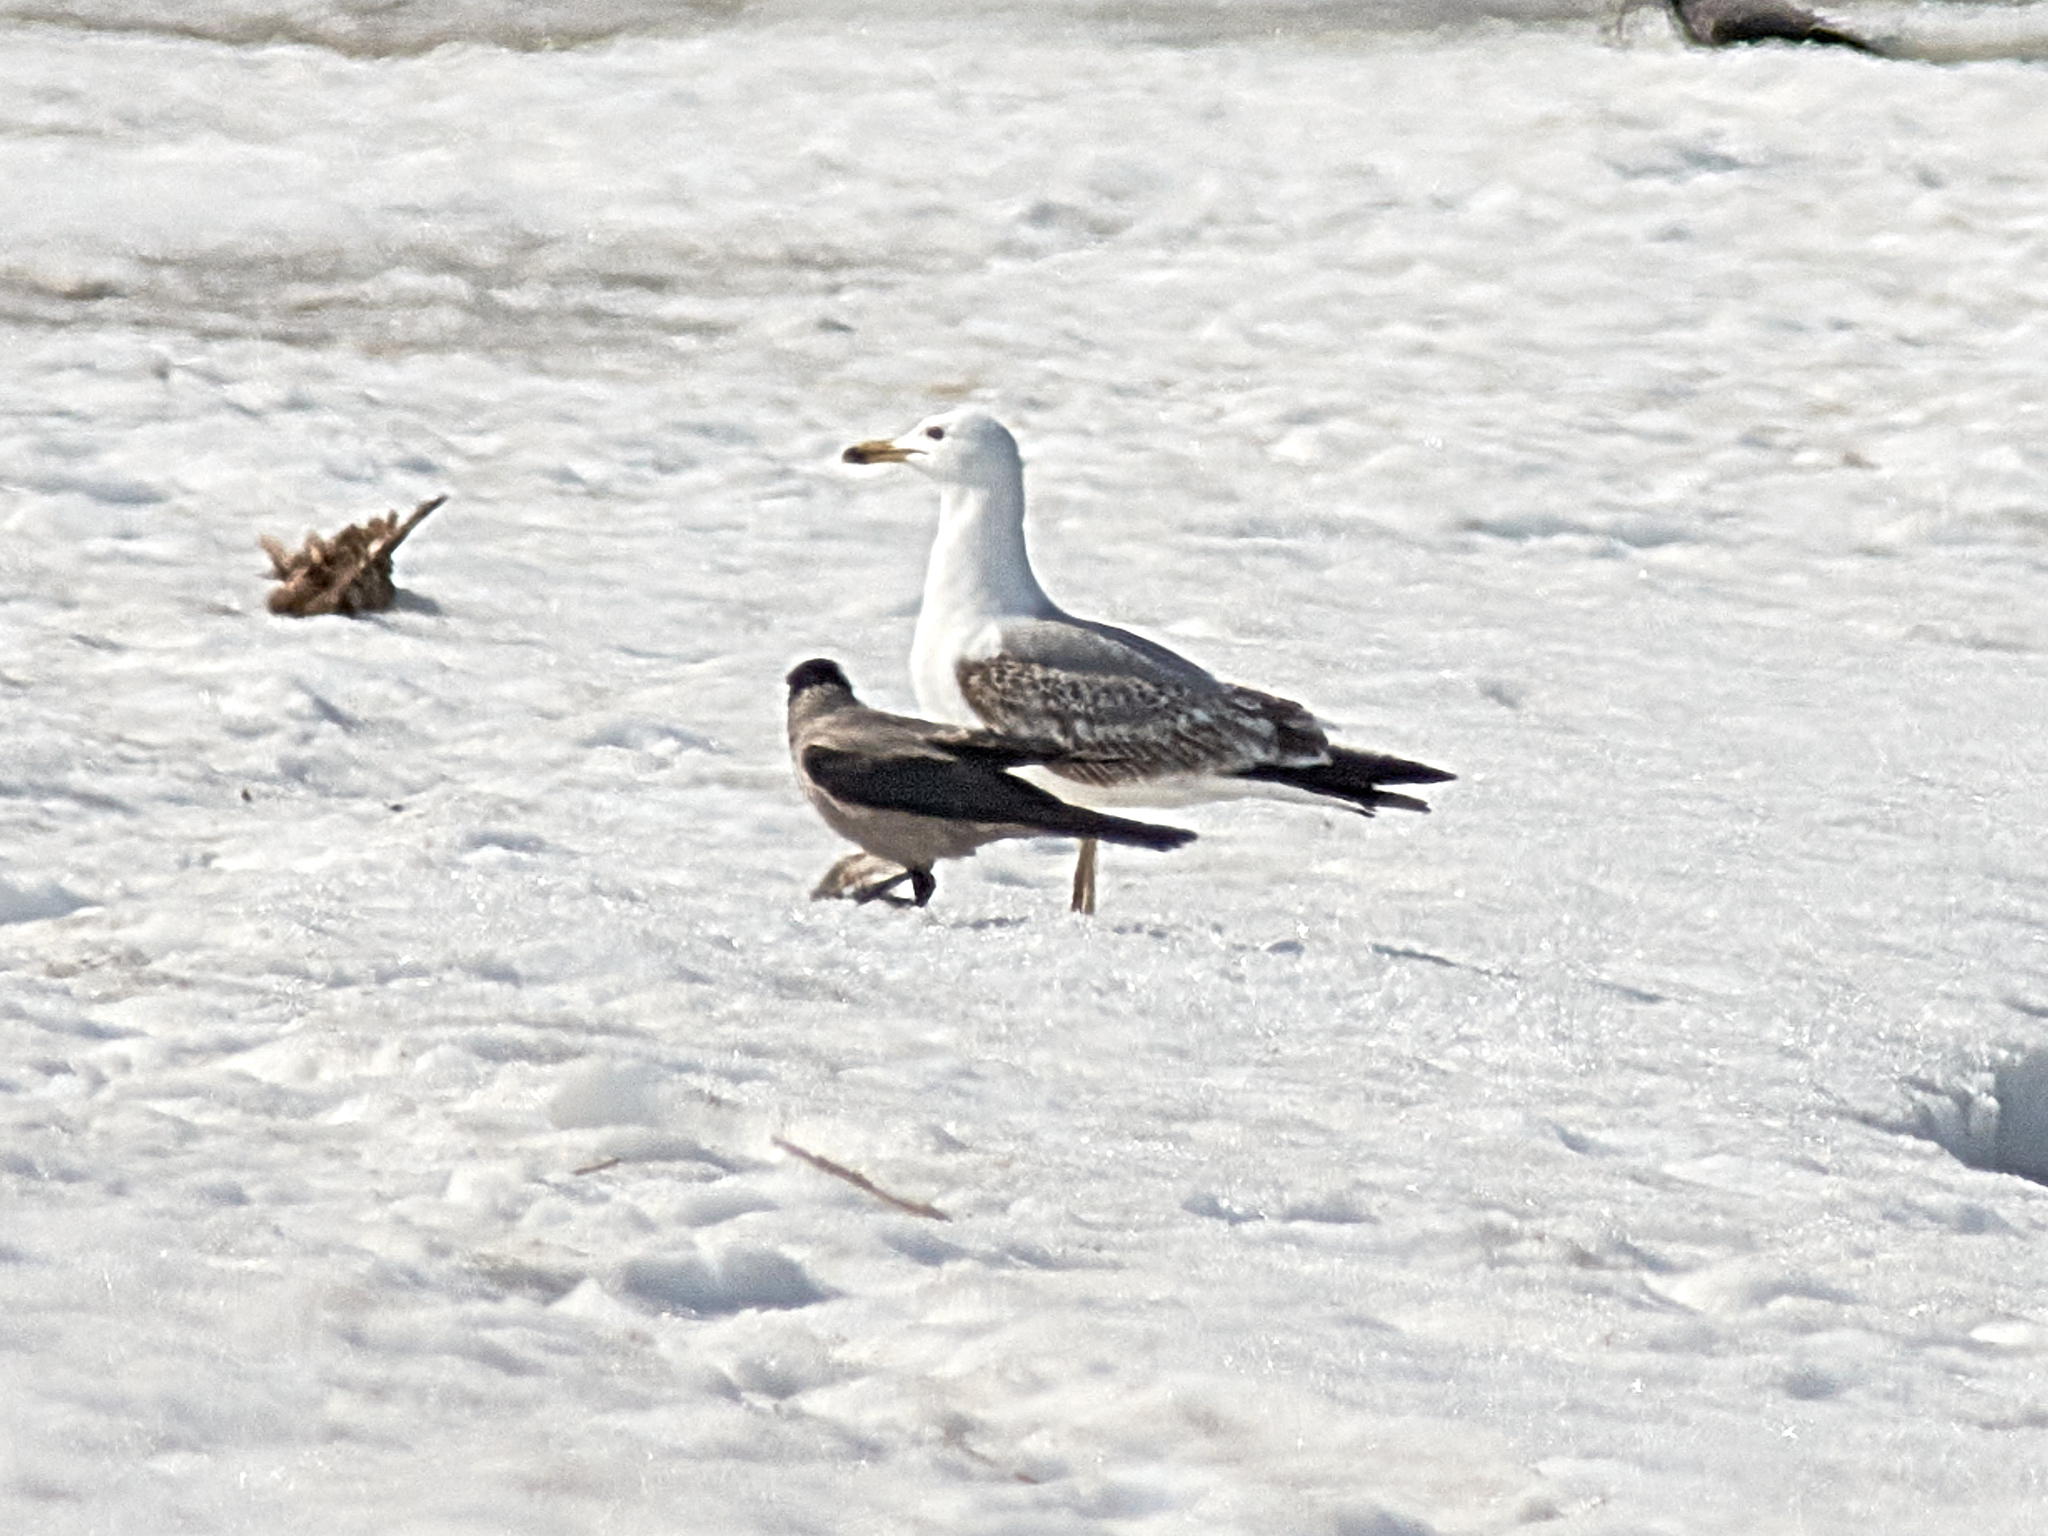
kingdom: Animalia
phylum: Chordata
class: Aves
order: Charadriiformes
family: Laridae
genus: Larus
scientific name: Larus cachinnans
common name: Caspian gull
